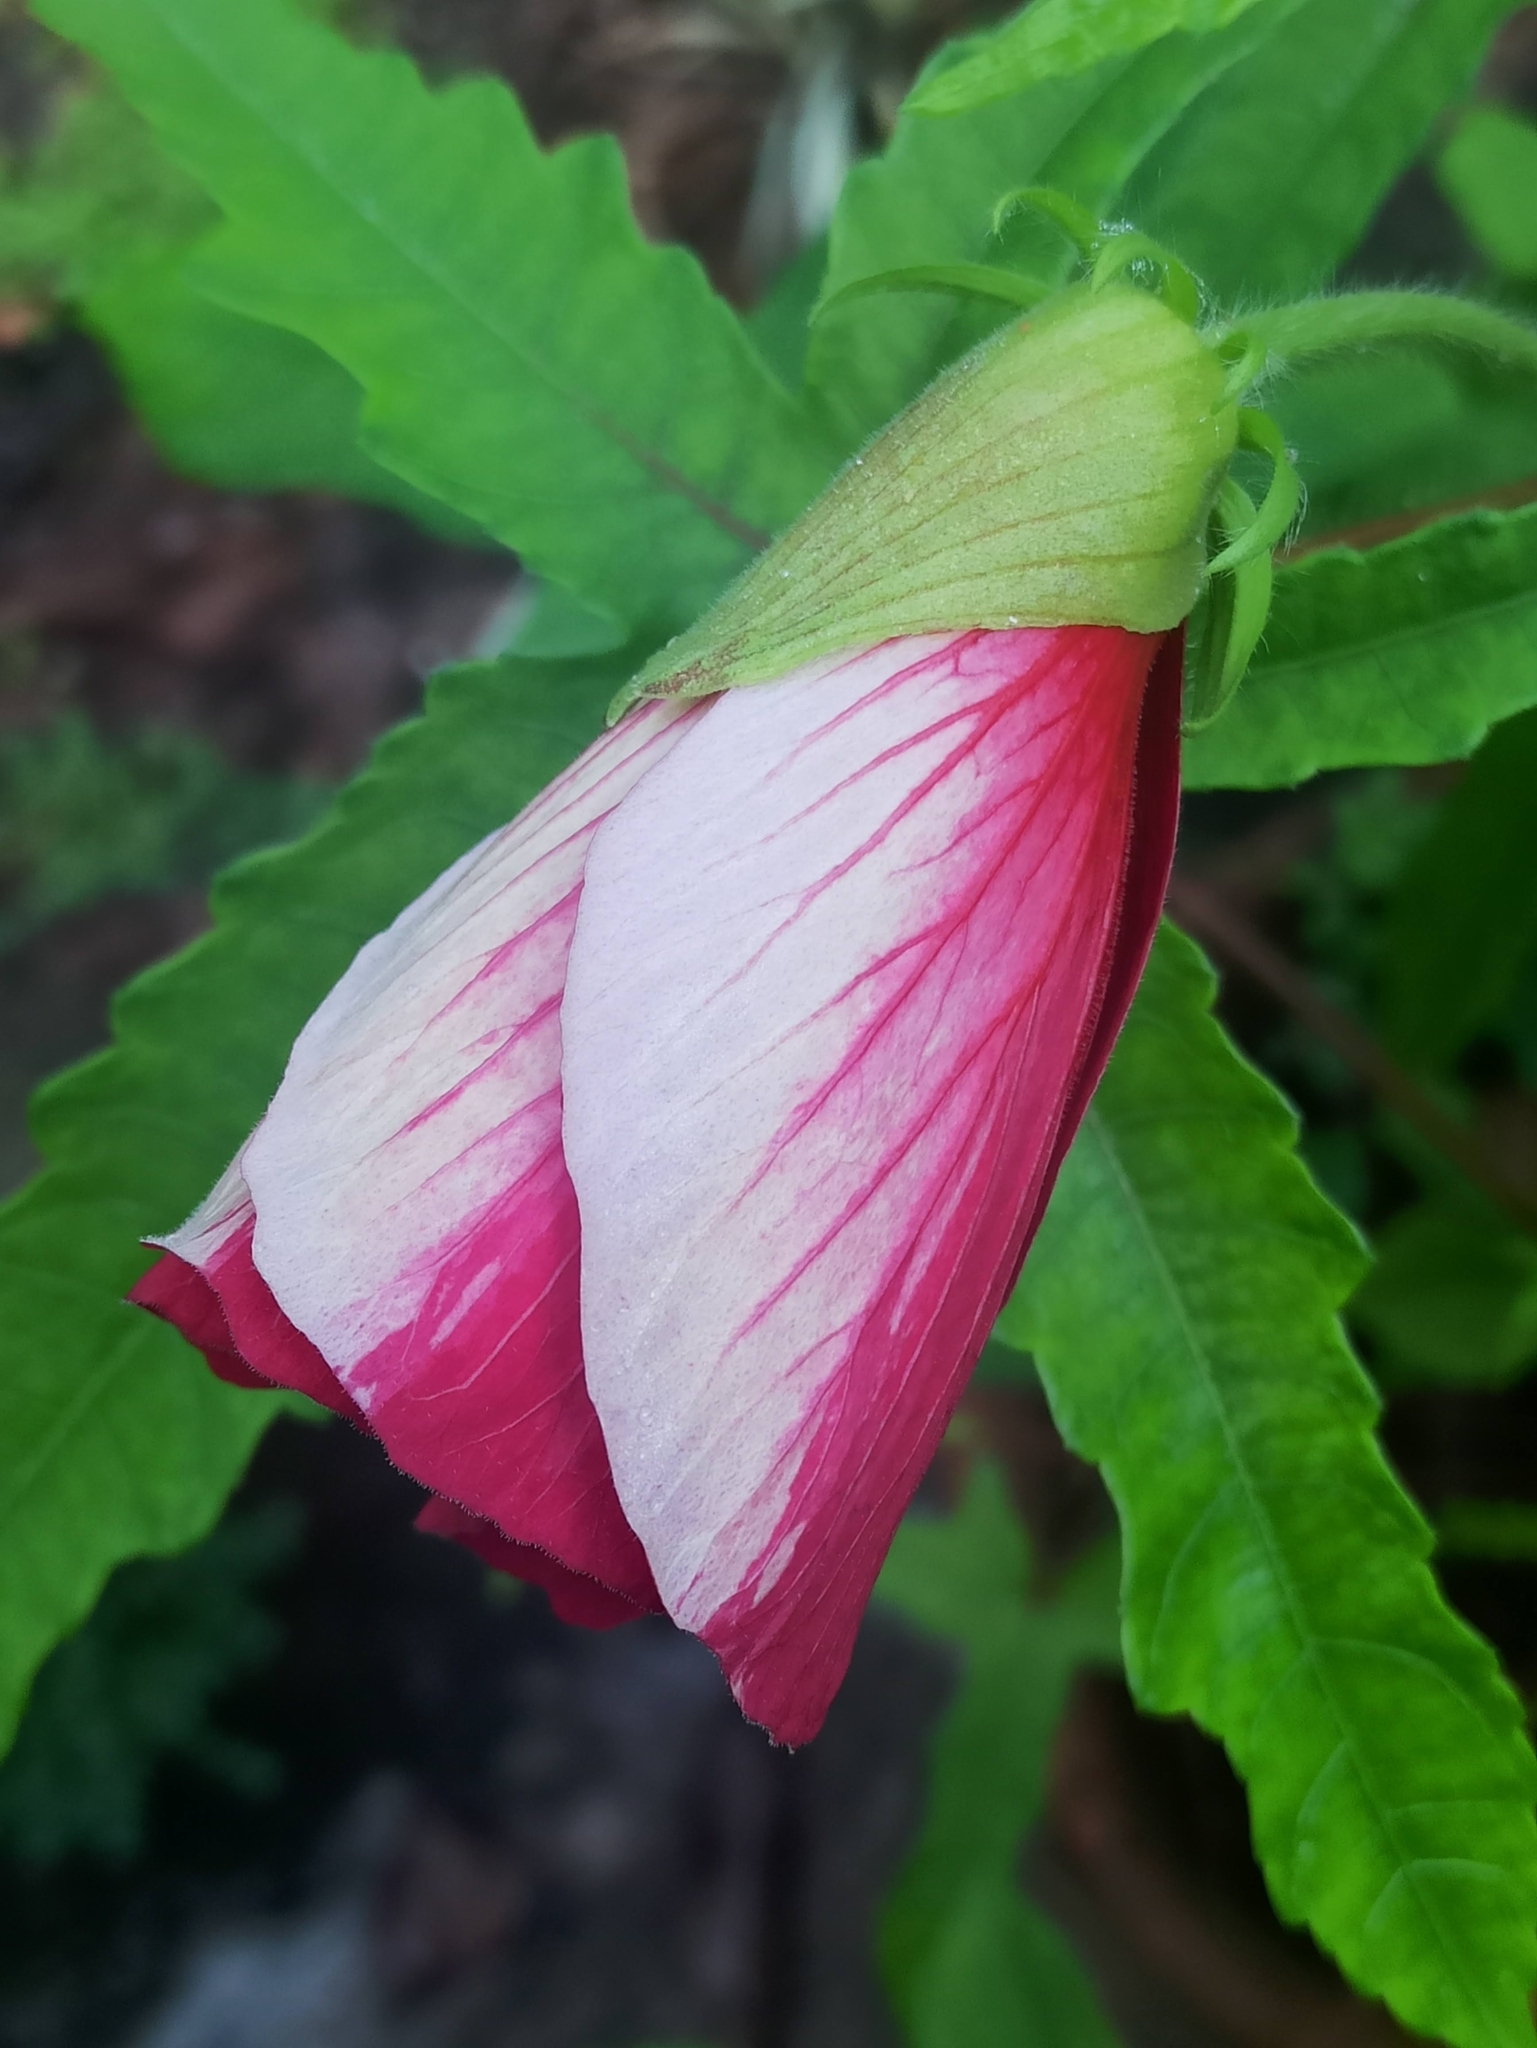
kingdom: Plantae
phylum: Tracheophyta
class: Magnoliopsida
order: Malvales
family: Malvaceae
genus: Abelmoschus
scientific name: Abelmoschus sagittifolius
